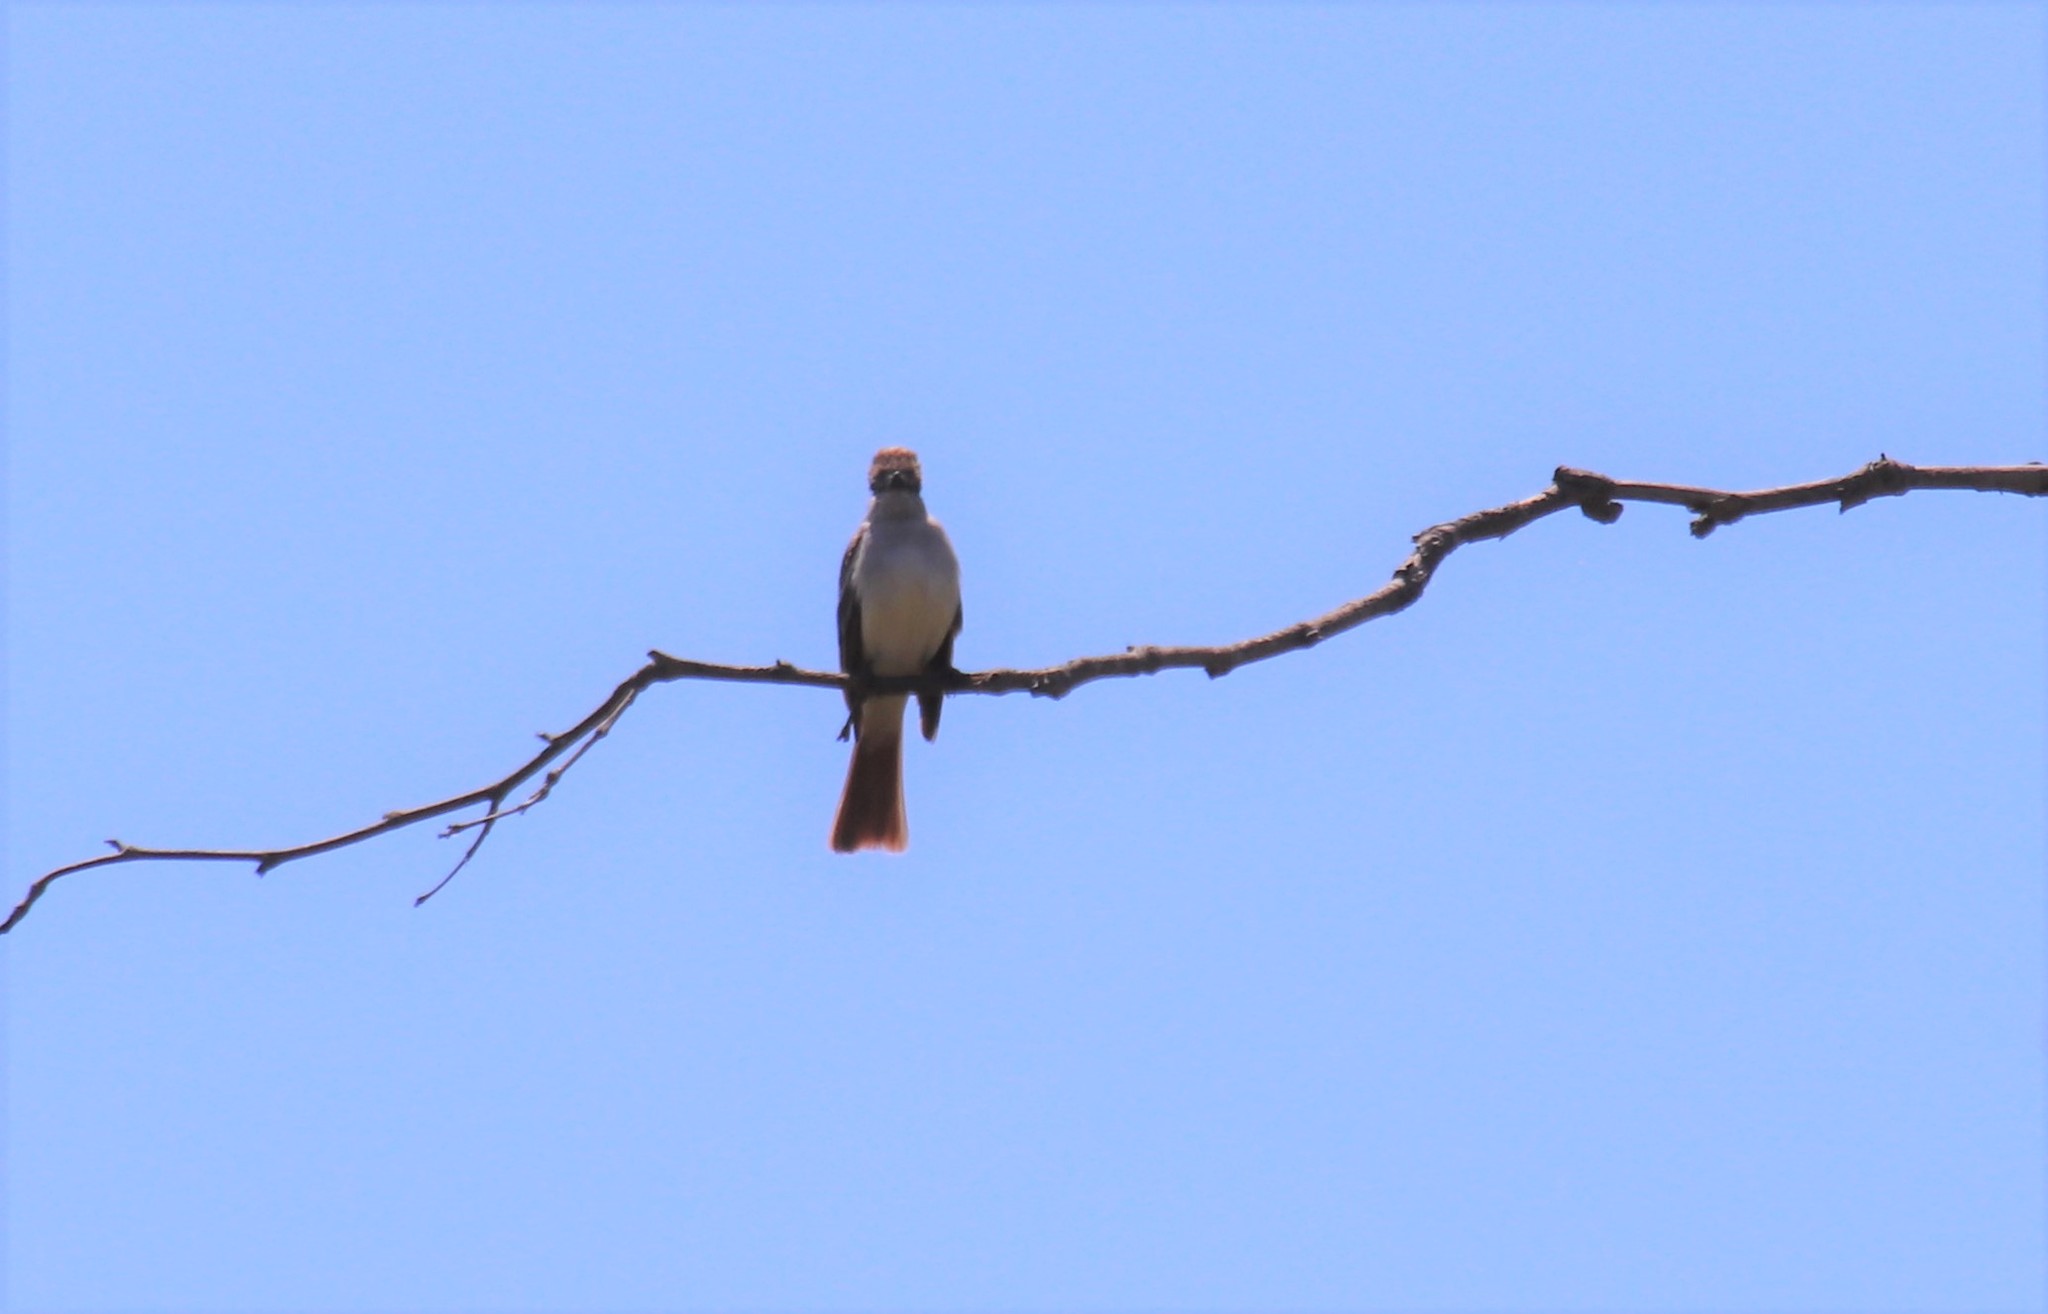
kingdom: Animalia
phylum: Chordata
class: Aves
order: Passeriformes
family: Tyrannidae
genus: Myiarchus
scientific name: Myiarchus cinerascens
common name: Ash-throated flycatcher
